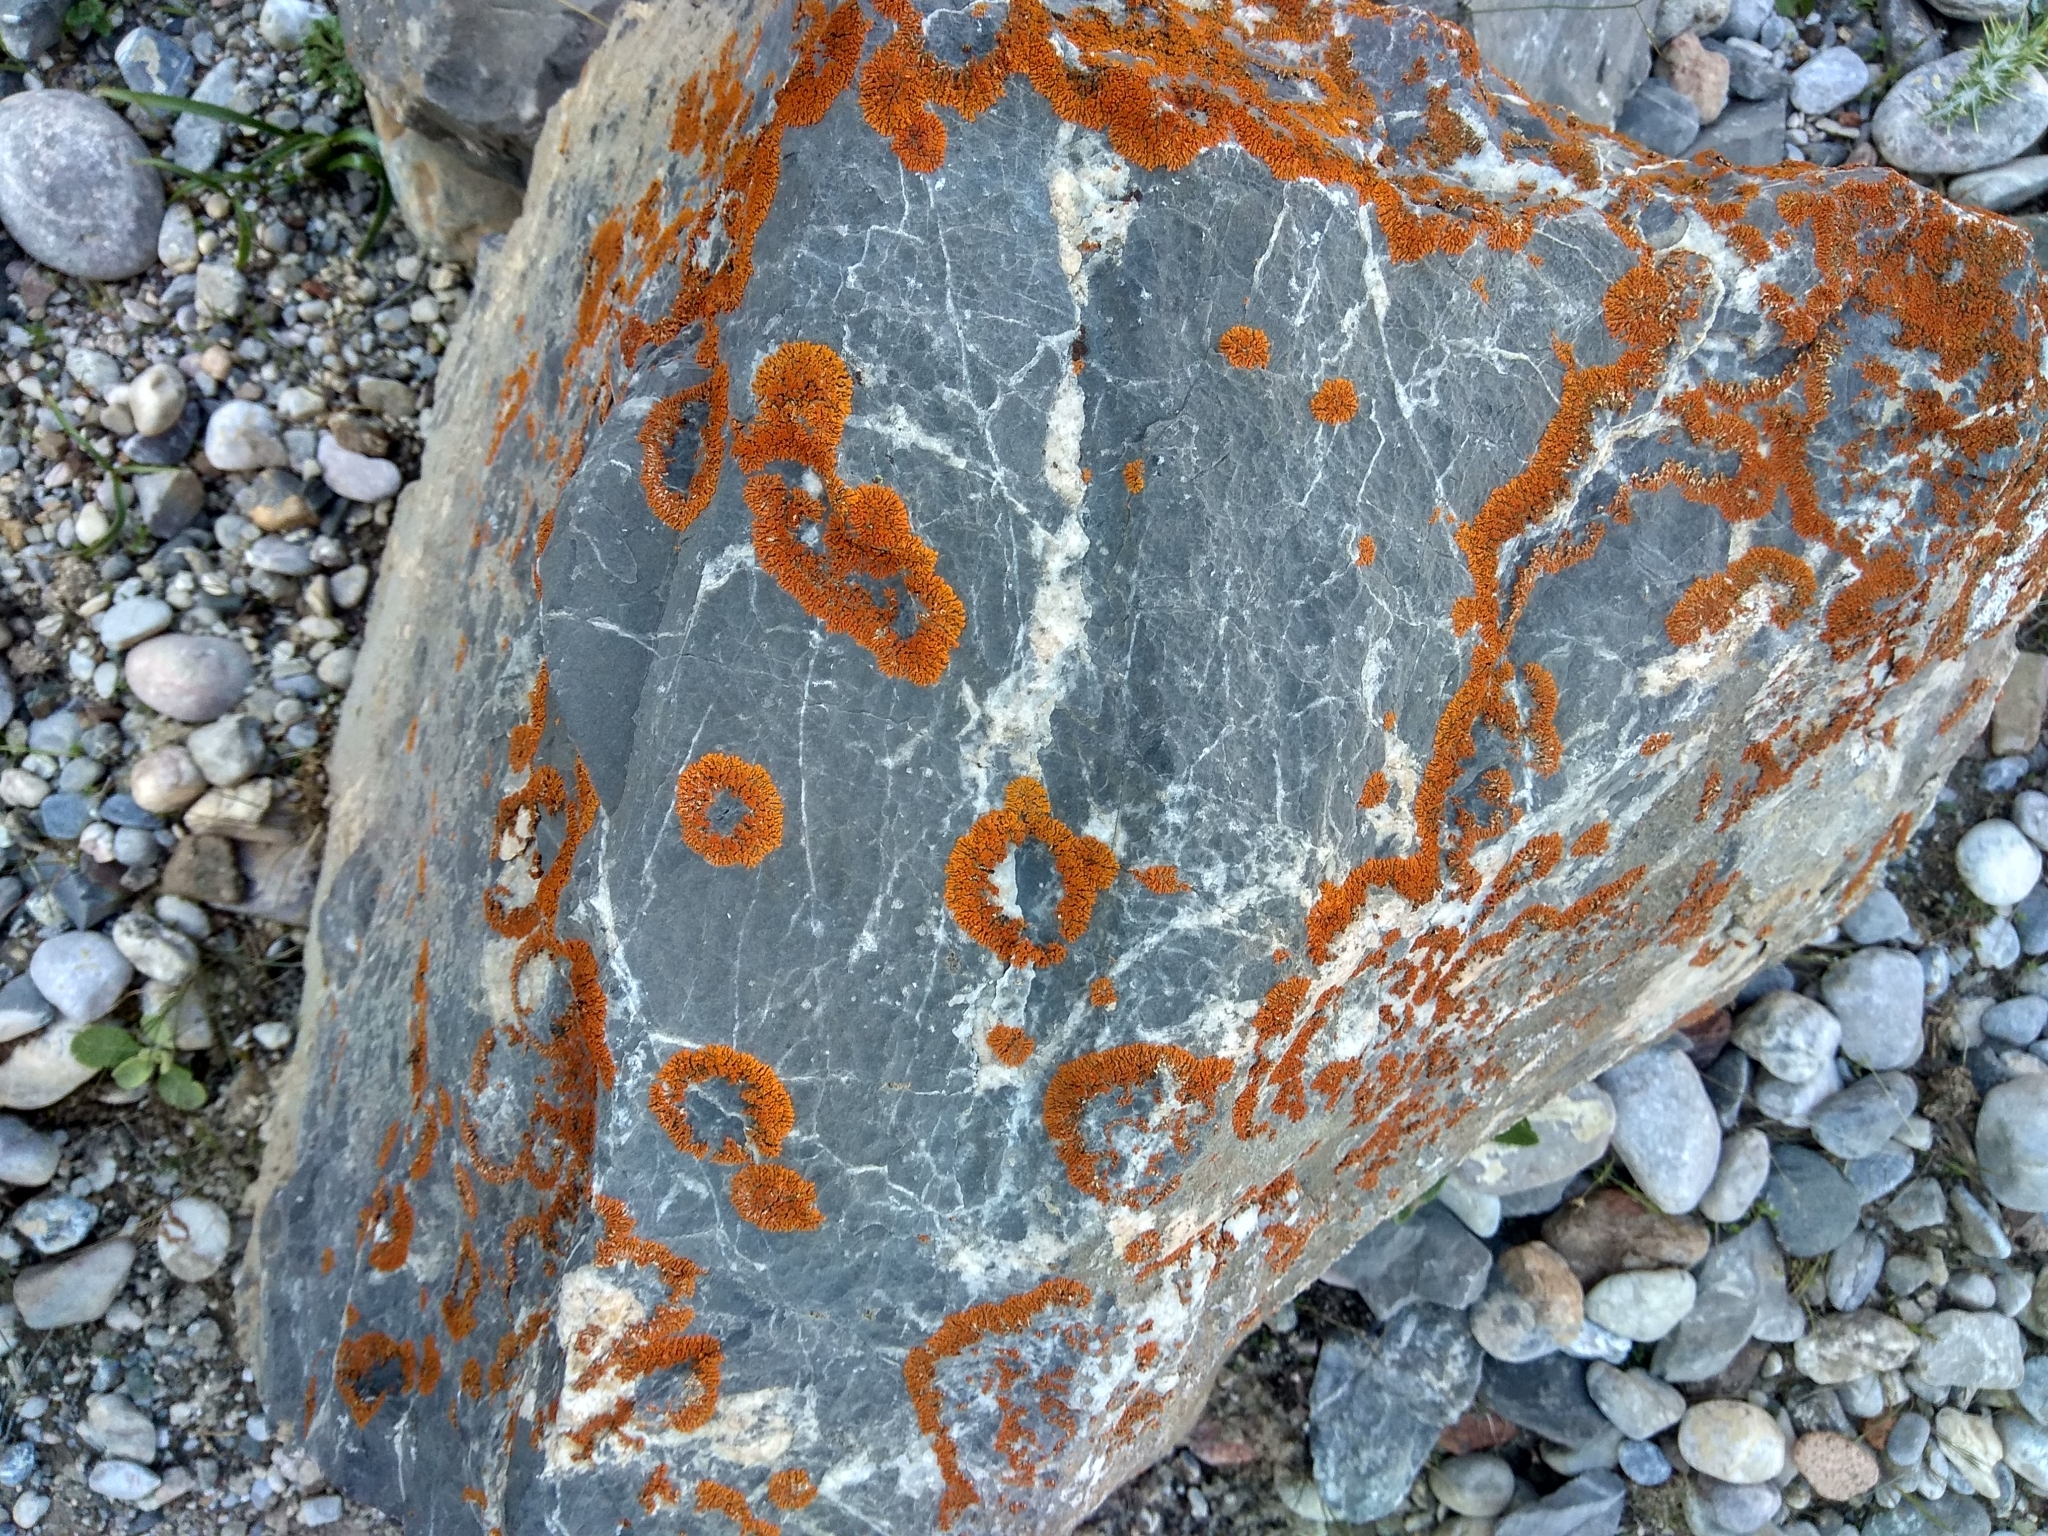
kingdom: Fungi
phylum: Ascomycota
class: Lecanoromycetes
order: Teloschistales
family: Teloschistaceae
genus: Xanthoria
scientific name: Xanthoria elegans
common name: Elegant sunburst lichen
